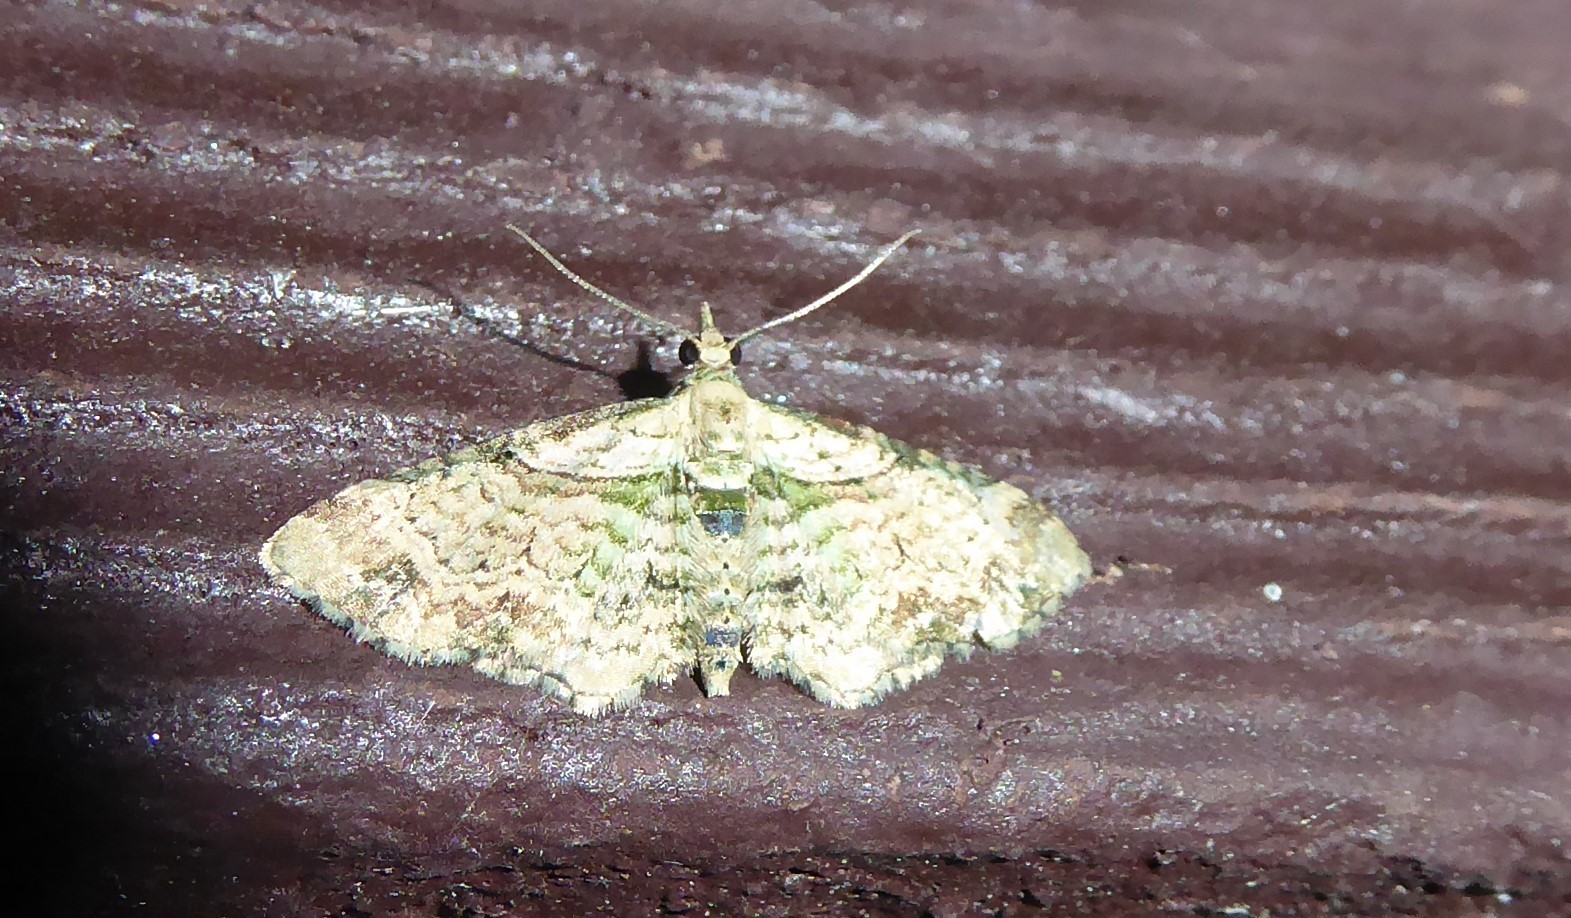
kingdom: Animalia
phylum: Arthropoda
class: Insecta
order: Lepidoptera
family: Geometridae
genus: Chloroclystis
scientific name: Chloroclystis
